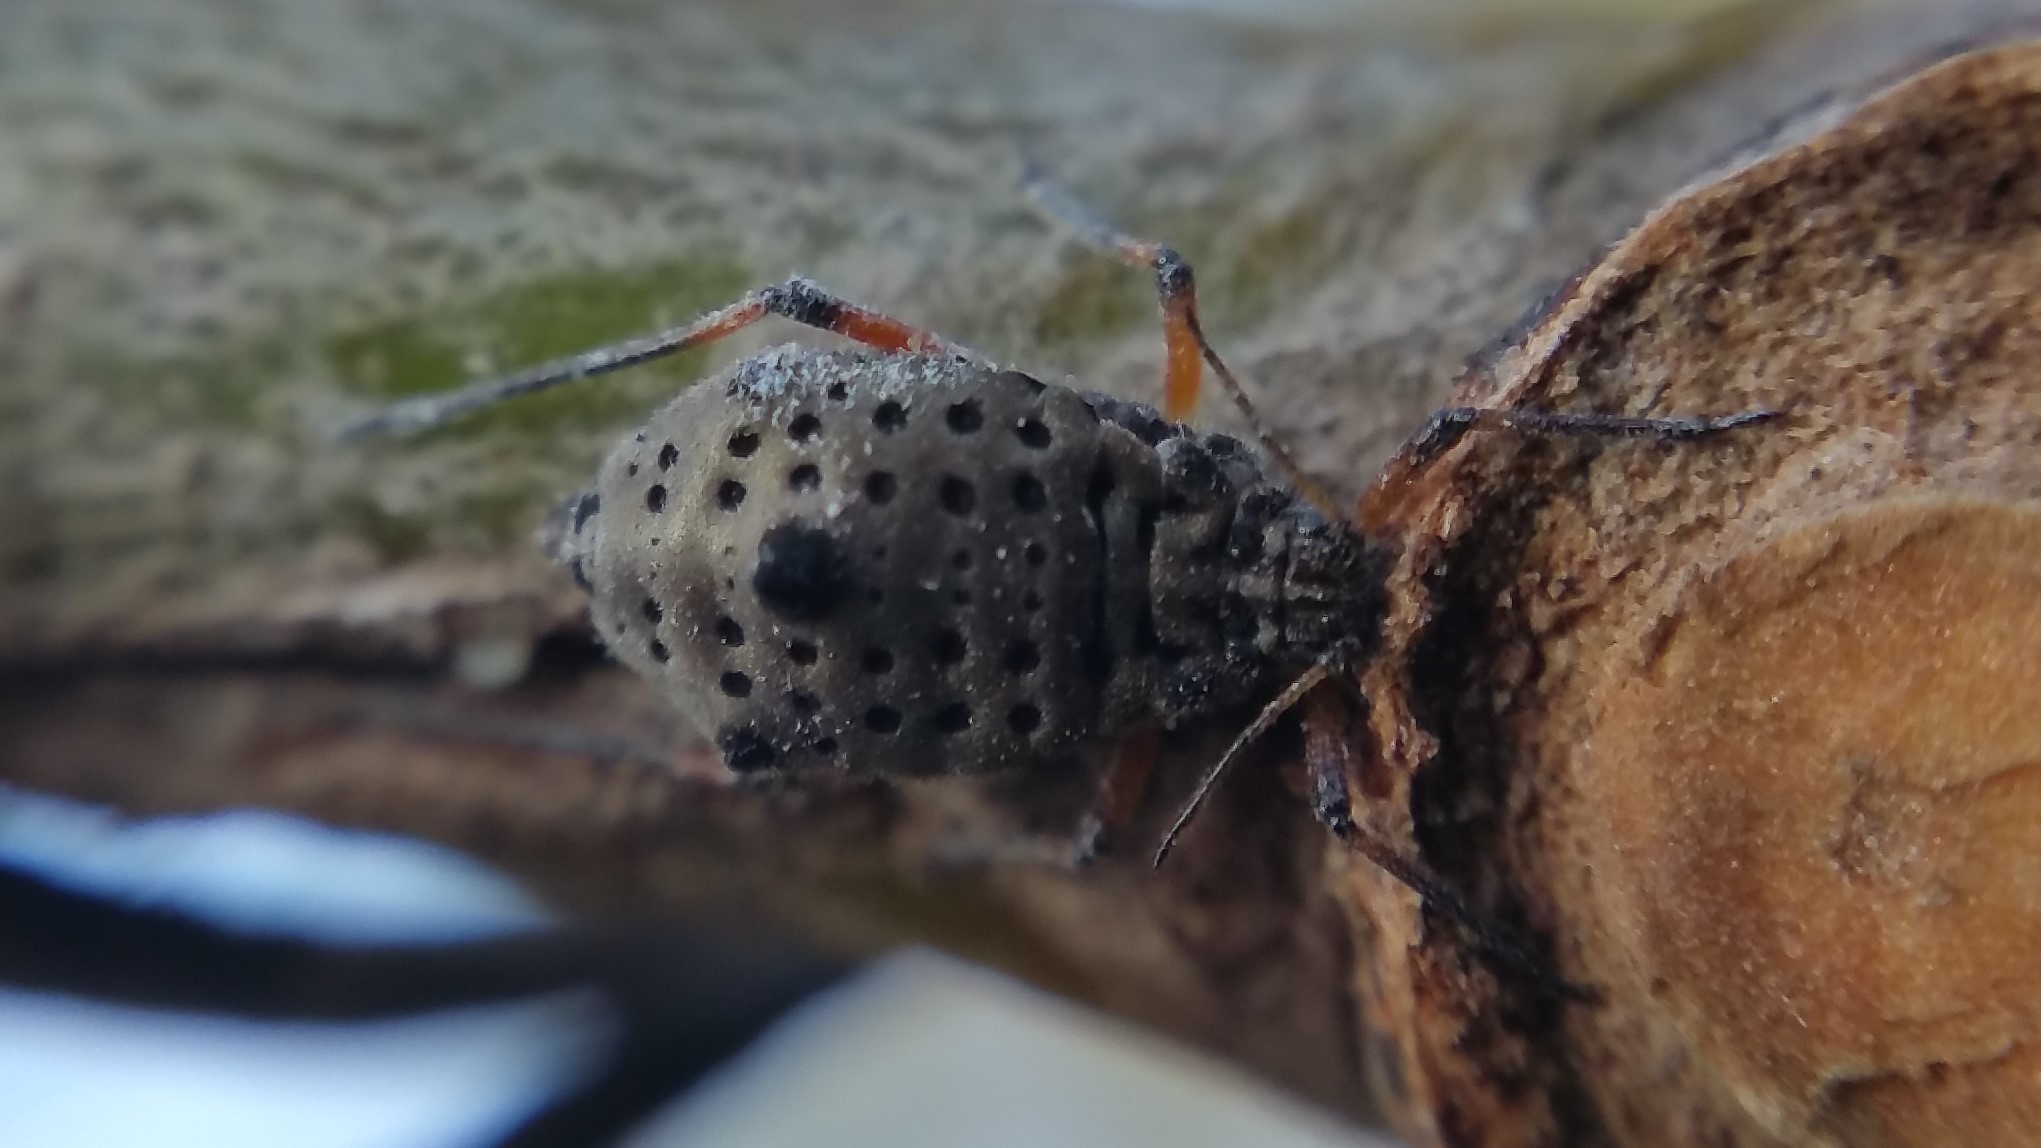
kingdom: Animalia
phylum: Arthropoda
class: Insecta
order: Hemiptera
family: Aphididae
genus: Tuberolachnus
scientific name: Tuberolachnus salignus
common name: Giant willow aphid
